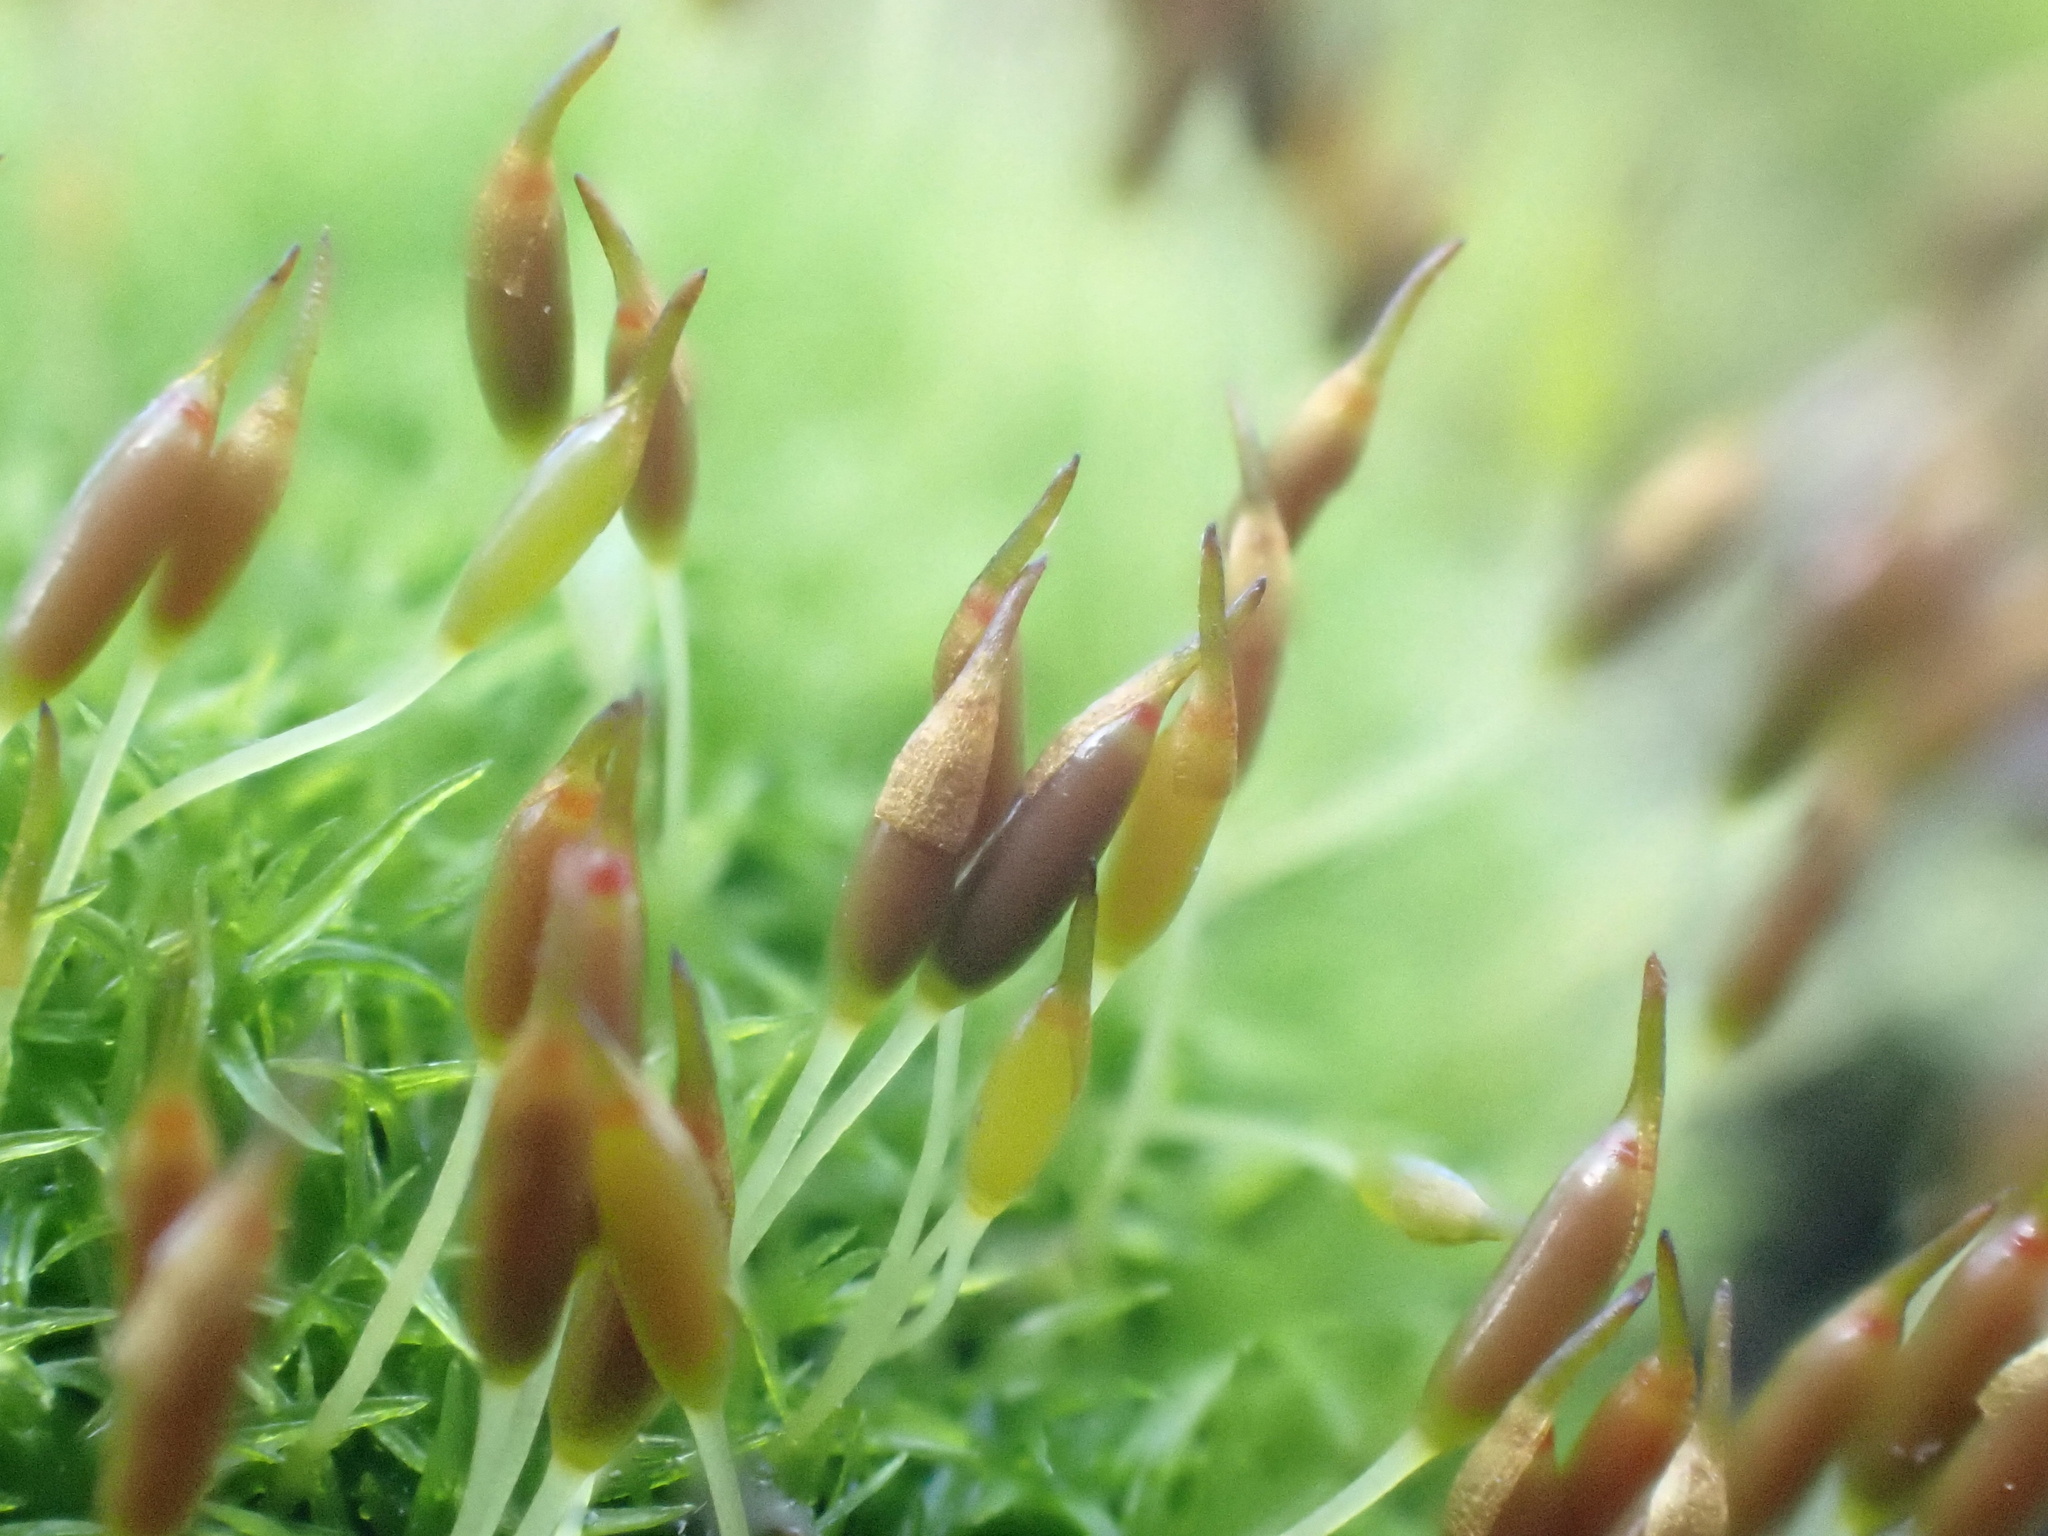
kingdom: Plantae
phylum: Bryophyta
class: Bryopsida
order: Dicranales
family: Rhabdoweisiaceae
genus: Dicranoweisia
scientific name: Dicranoweisia cirrata
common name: Common pincushion
